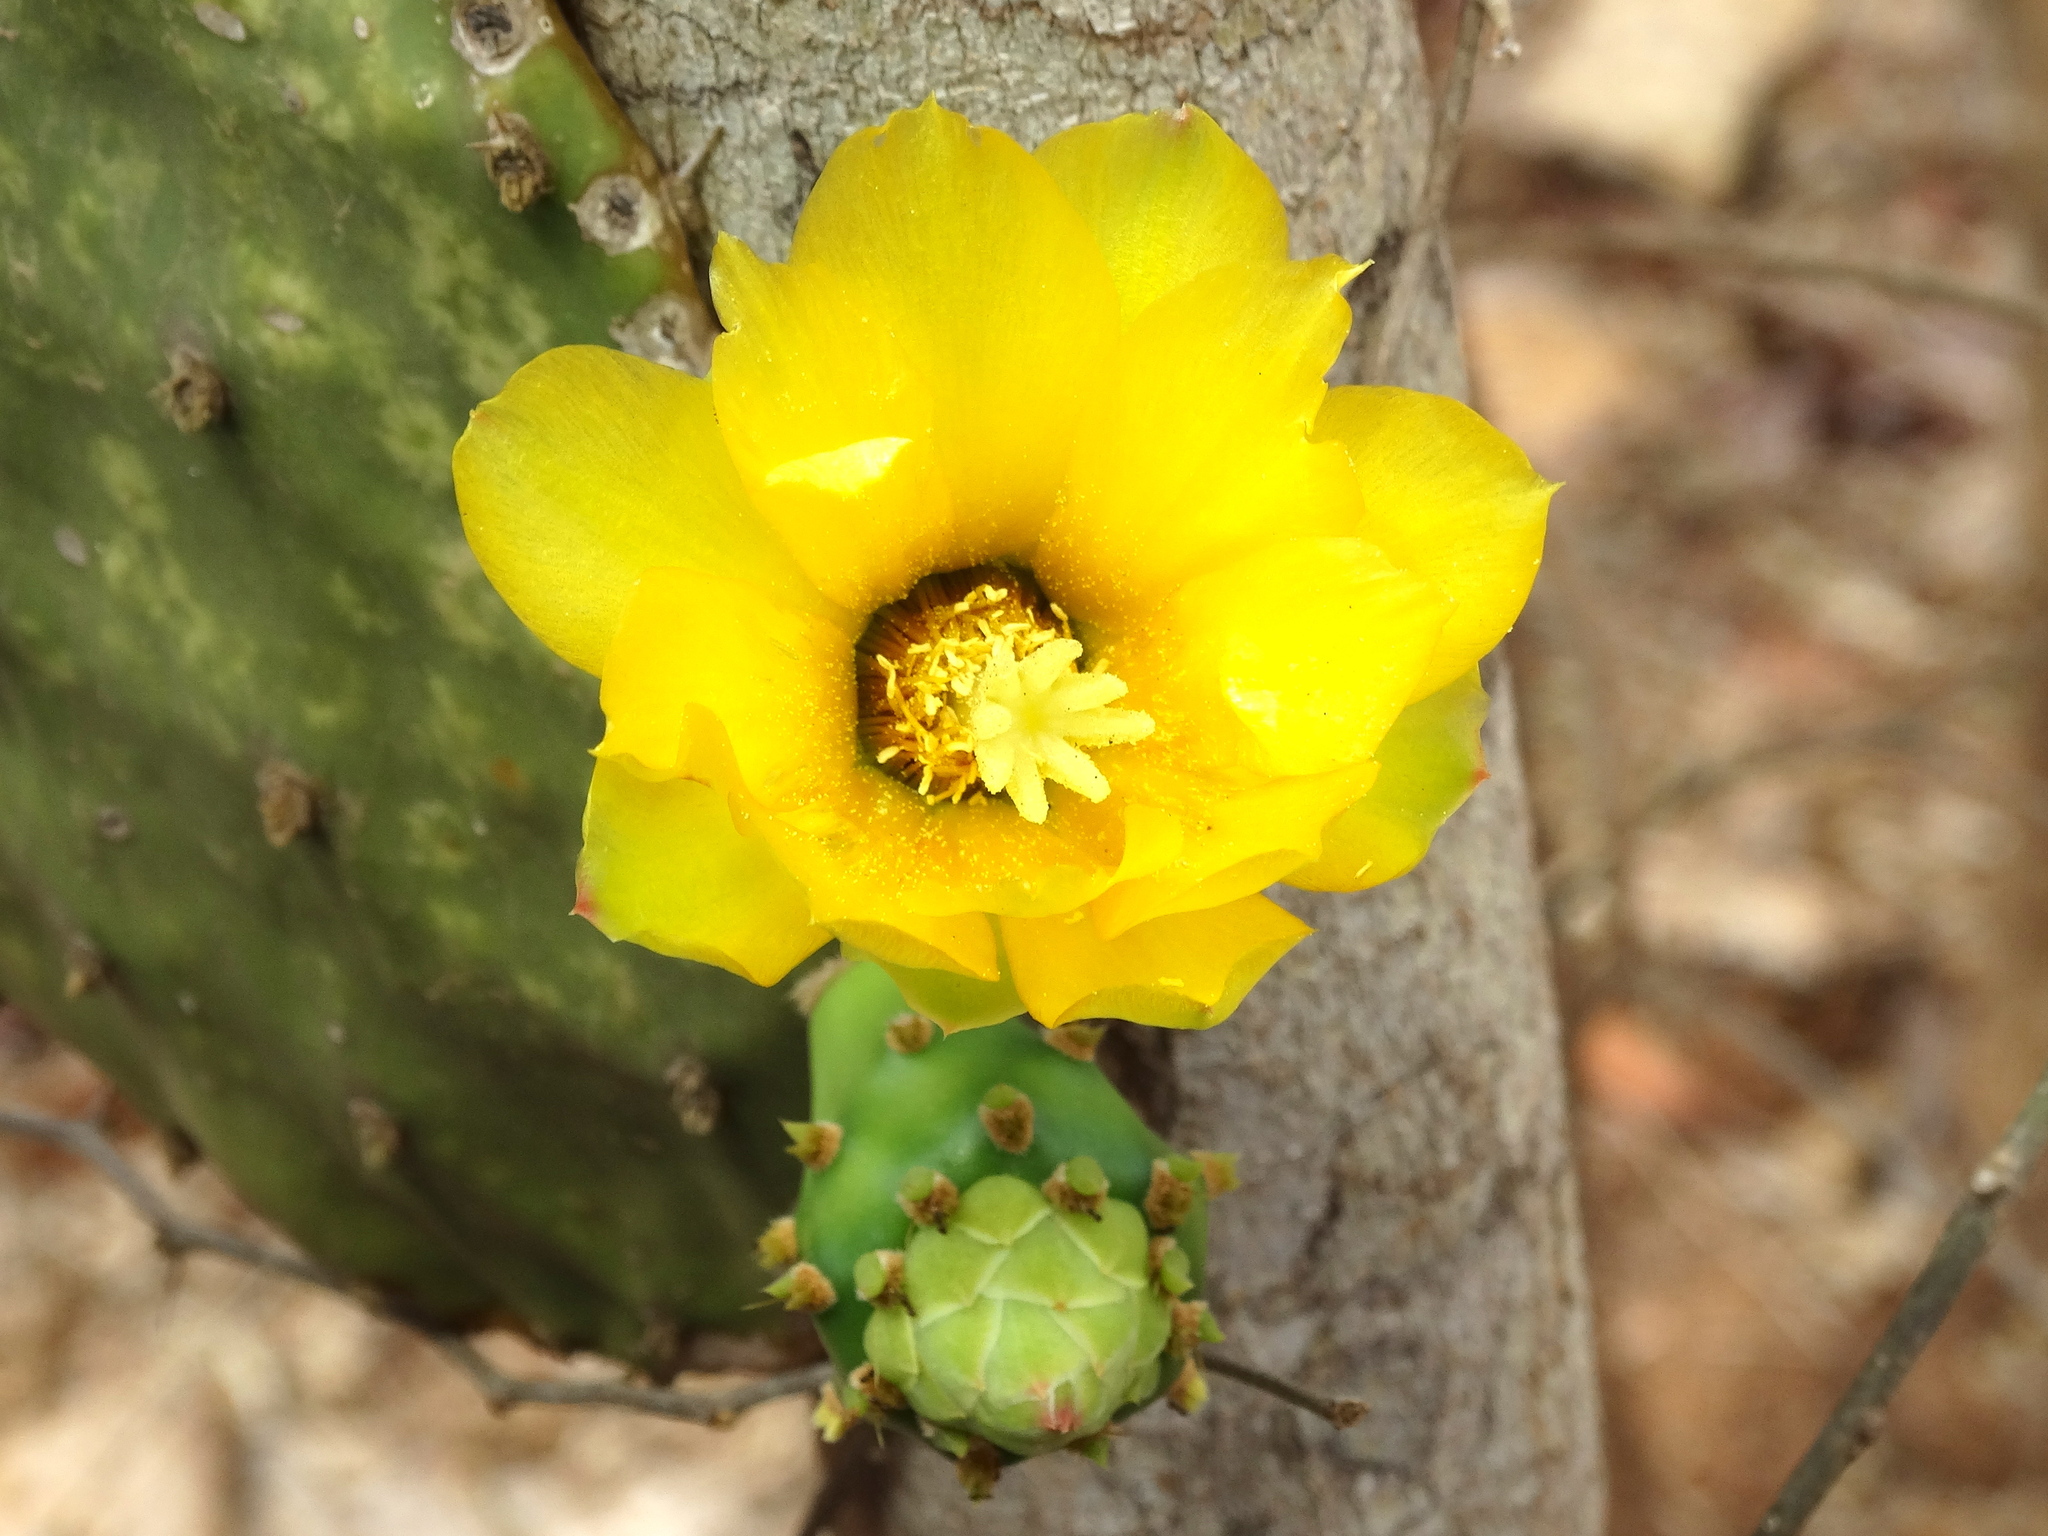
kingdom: Plantae
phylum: Tracheophyta
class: Magnoliopsida
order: Caryophyllales
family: Cactaceae
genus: Opuntia
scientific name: Opuntia decumbens
